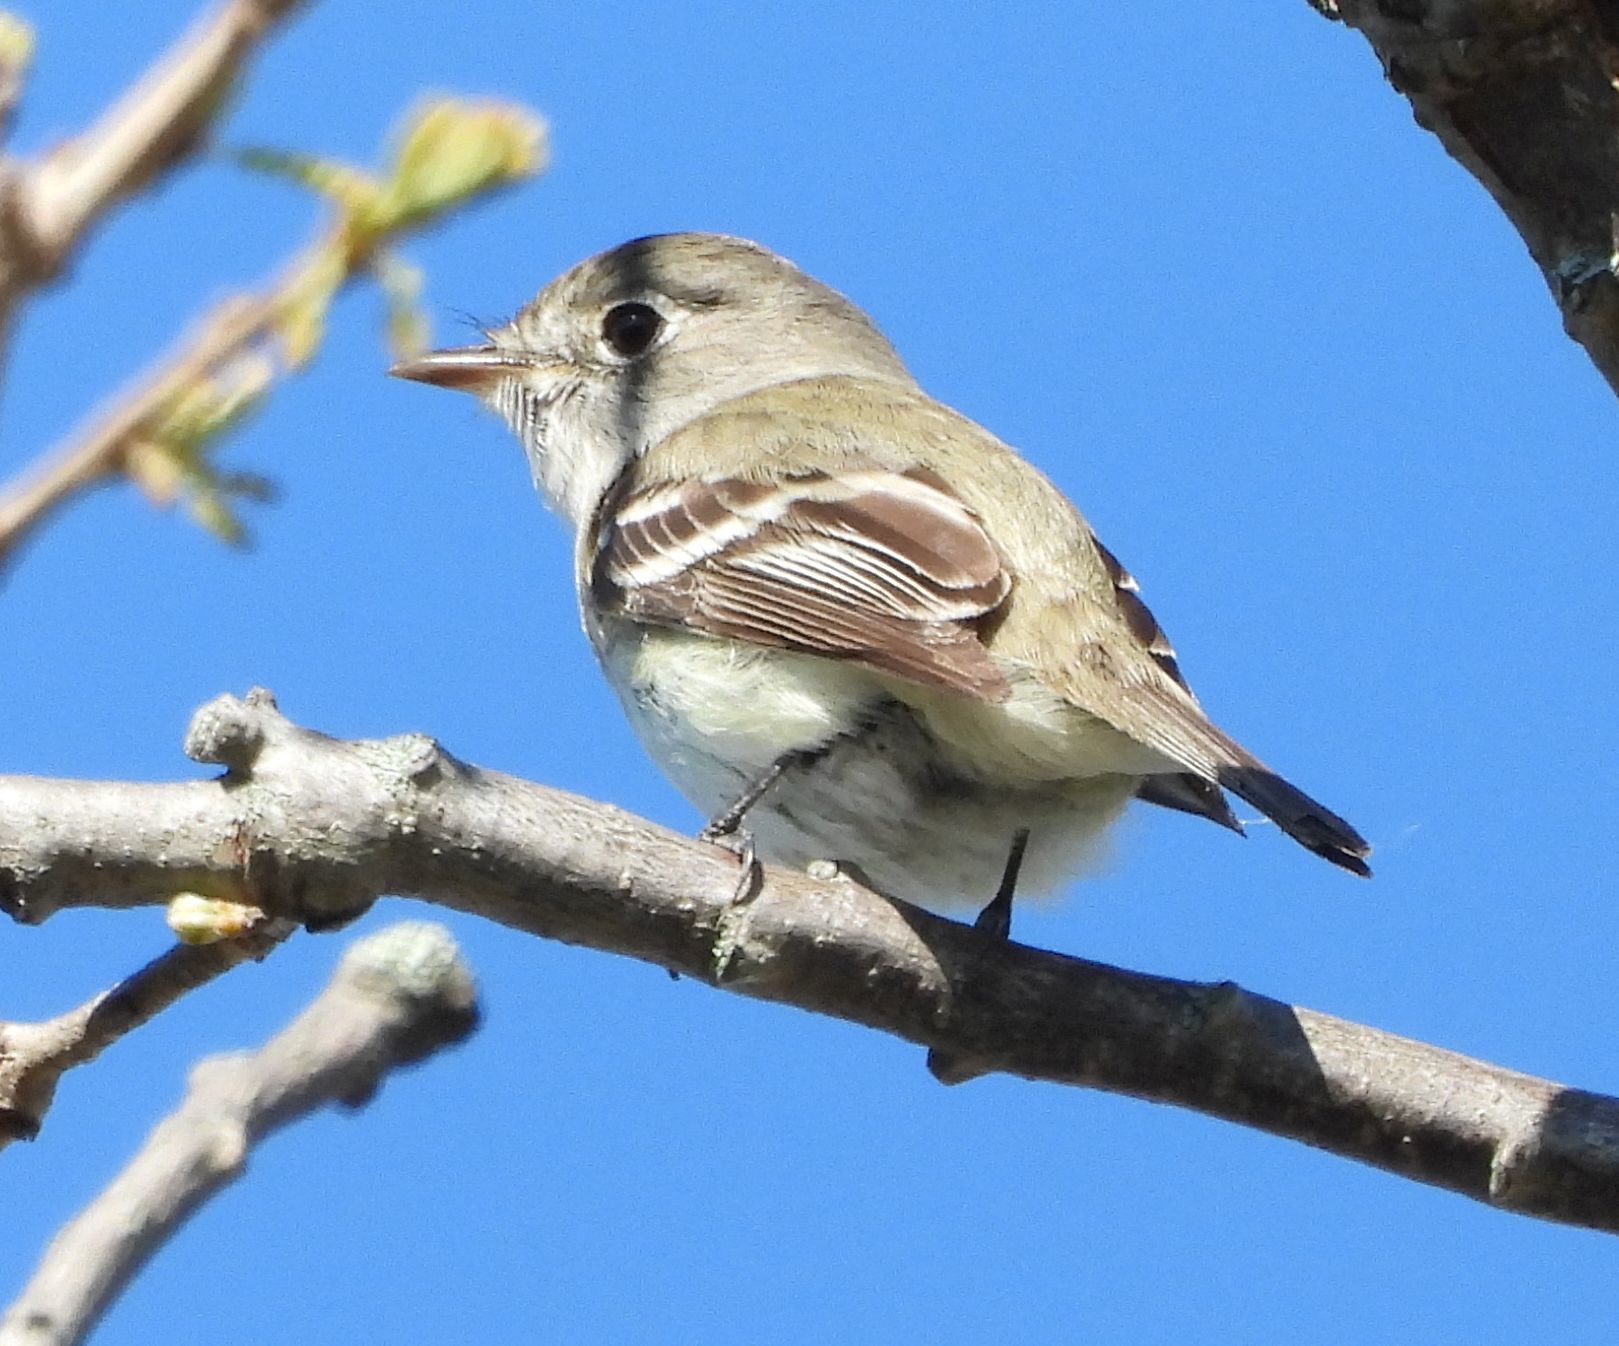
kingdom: Animalia
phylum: Chordata
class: Aves
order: Passeriformes
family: Tyrannidae
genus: Empidonax
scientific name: Empidonax minimus
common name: Least flycatcher
